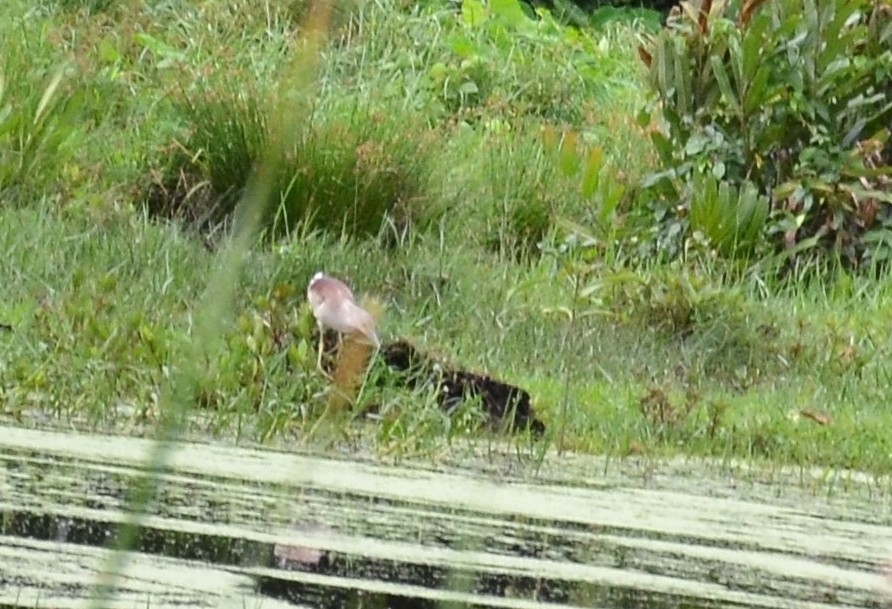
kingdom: Animalia
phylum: Chordata
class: Aves
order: Pelecaniformes
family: Ardeidae
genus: Ardeola
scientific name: Ardeola grayii
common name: Indian pond heron
